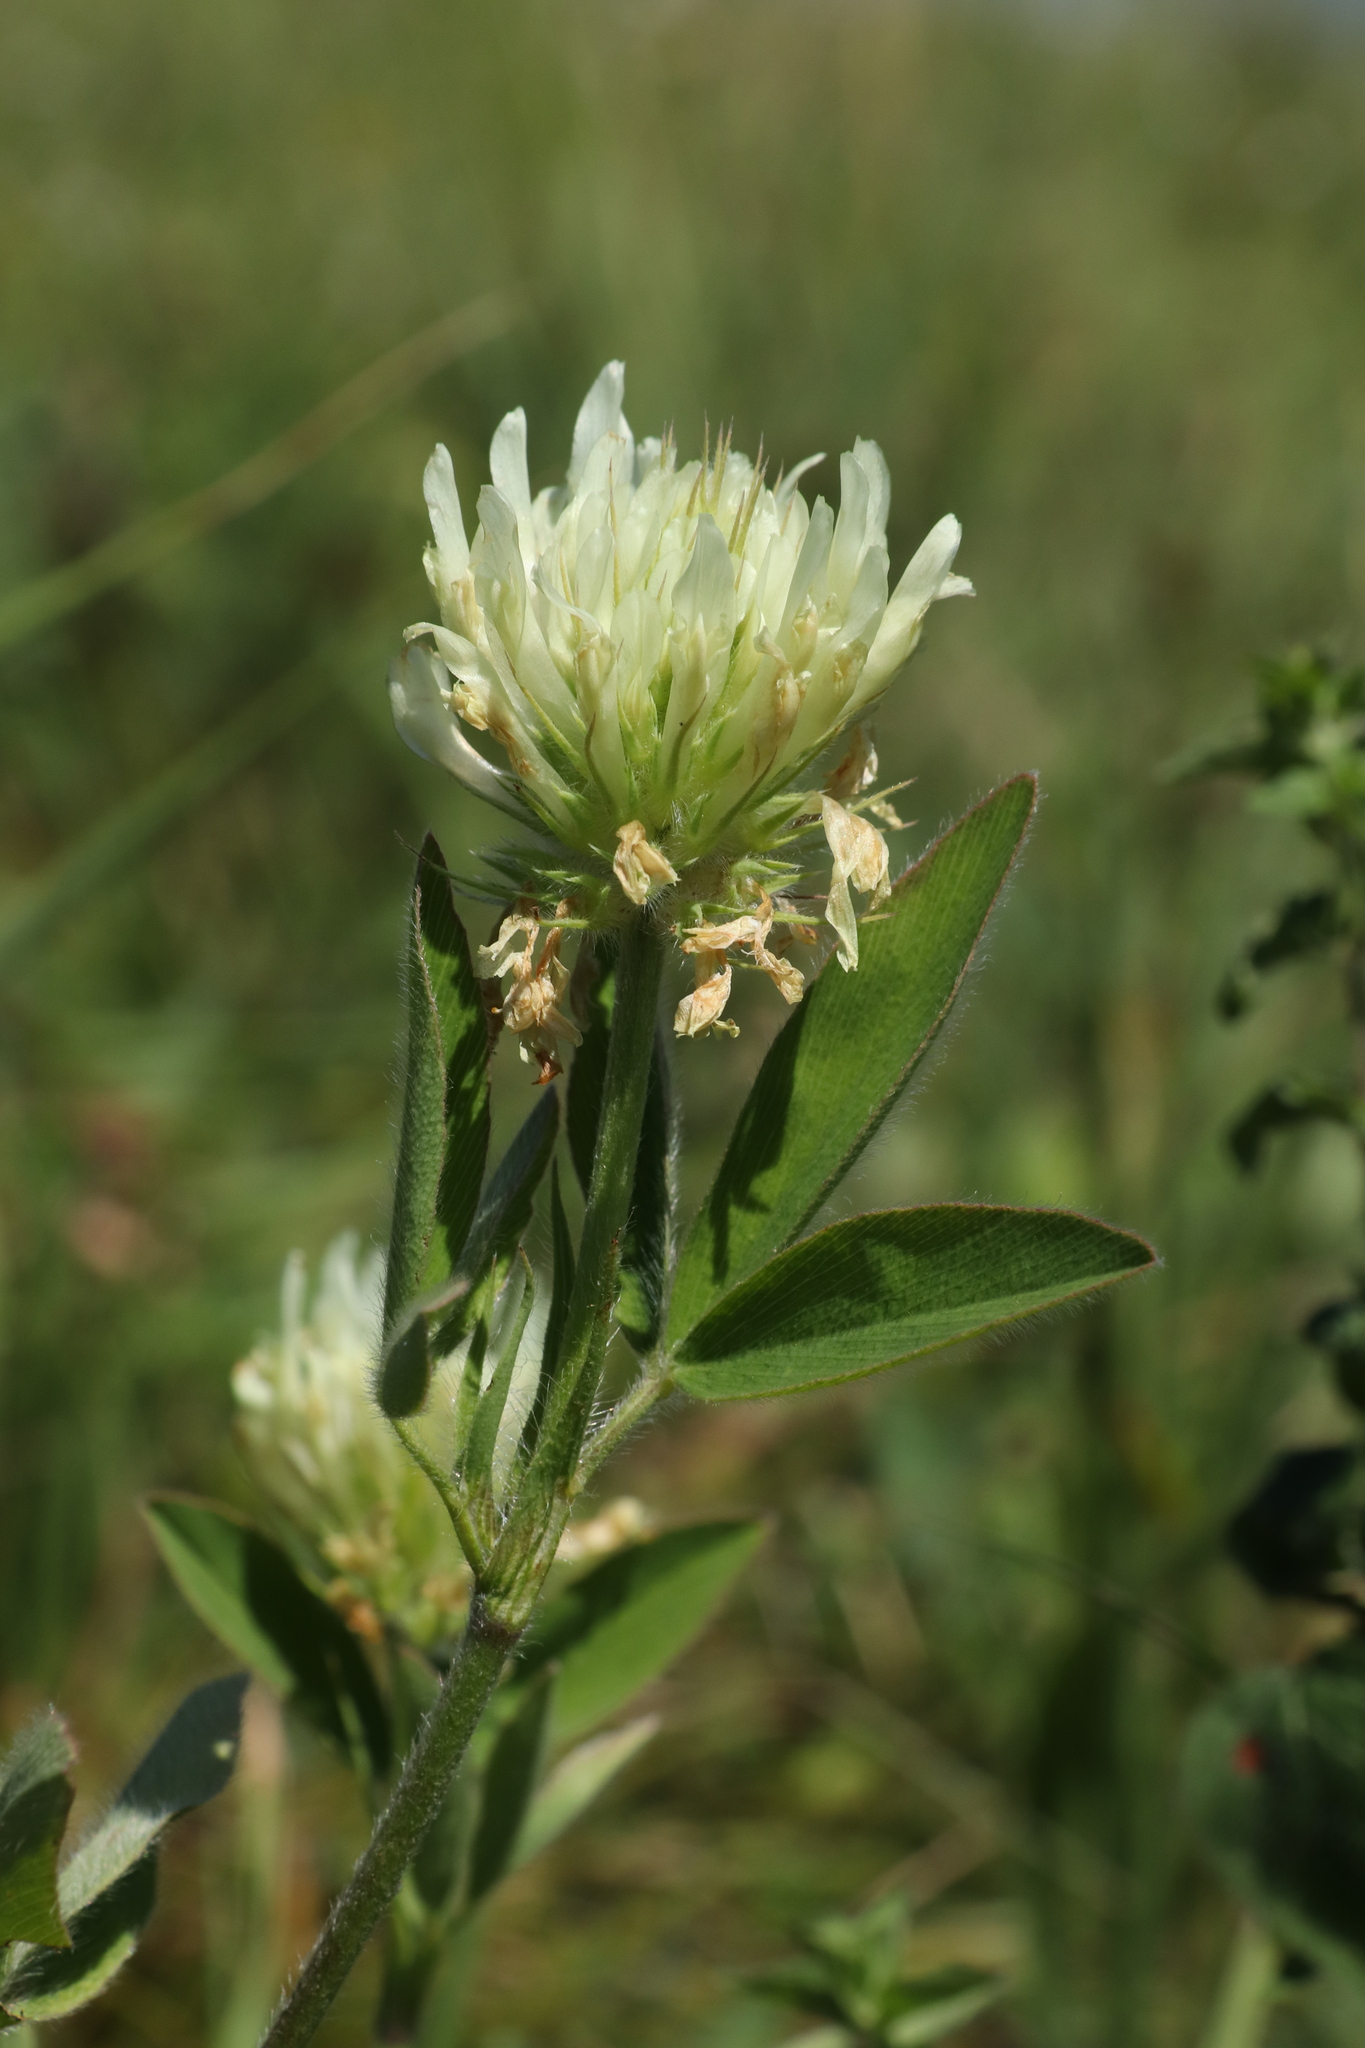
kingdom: Plantae
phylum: Tracheophyta
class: Magnoliopsida
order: Fabales
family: Fabaceae
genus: Trifolium
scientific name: Trifolium pannonicum
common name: Hungarian clover
